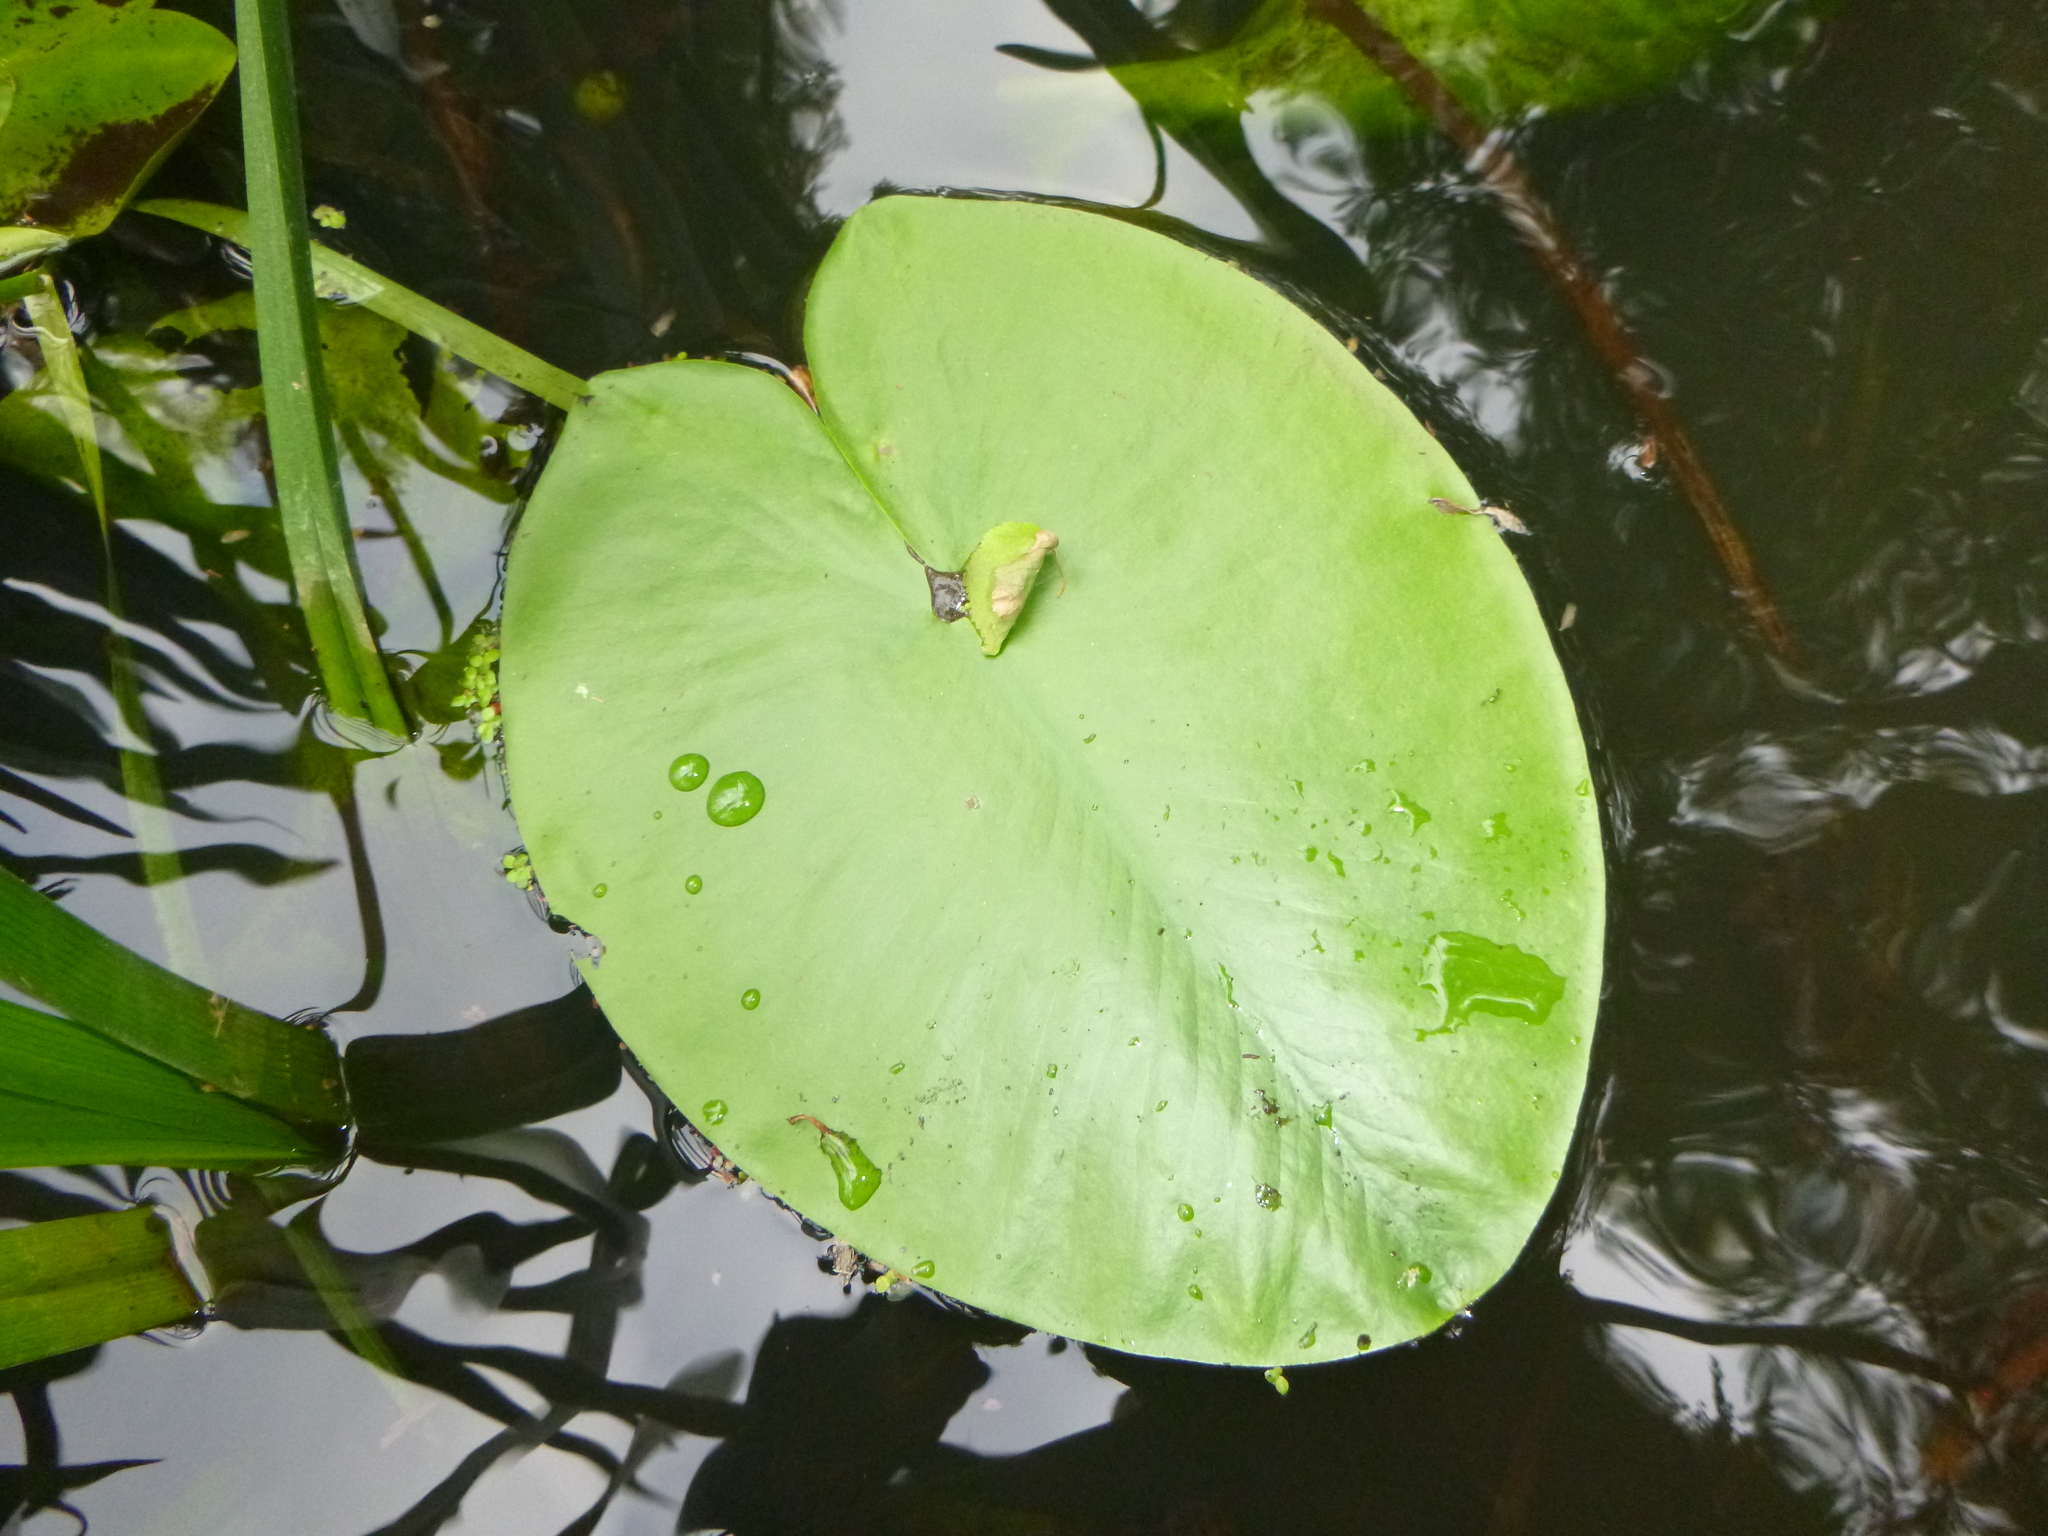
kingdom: Plantae
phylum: Tracheophyta
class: Magnoliopsida
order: Nymphaeales
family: Nymphaeaceae
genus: Nuphar
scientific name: Nuphar lutea
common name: Yellow water-lily
